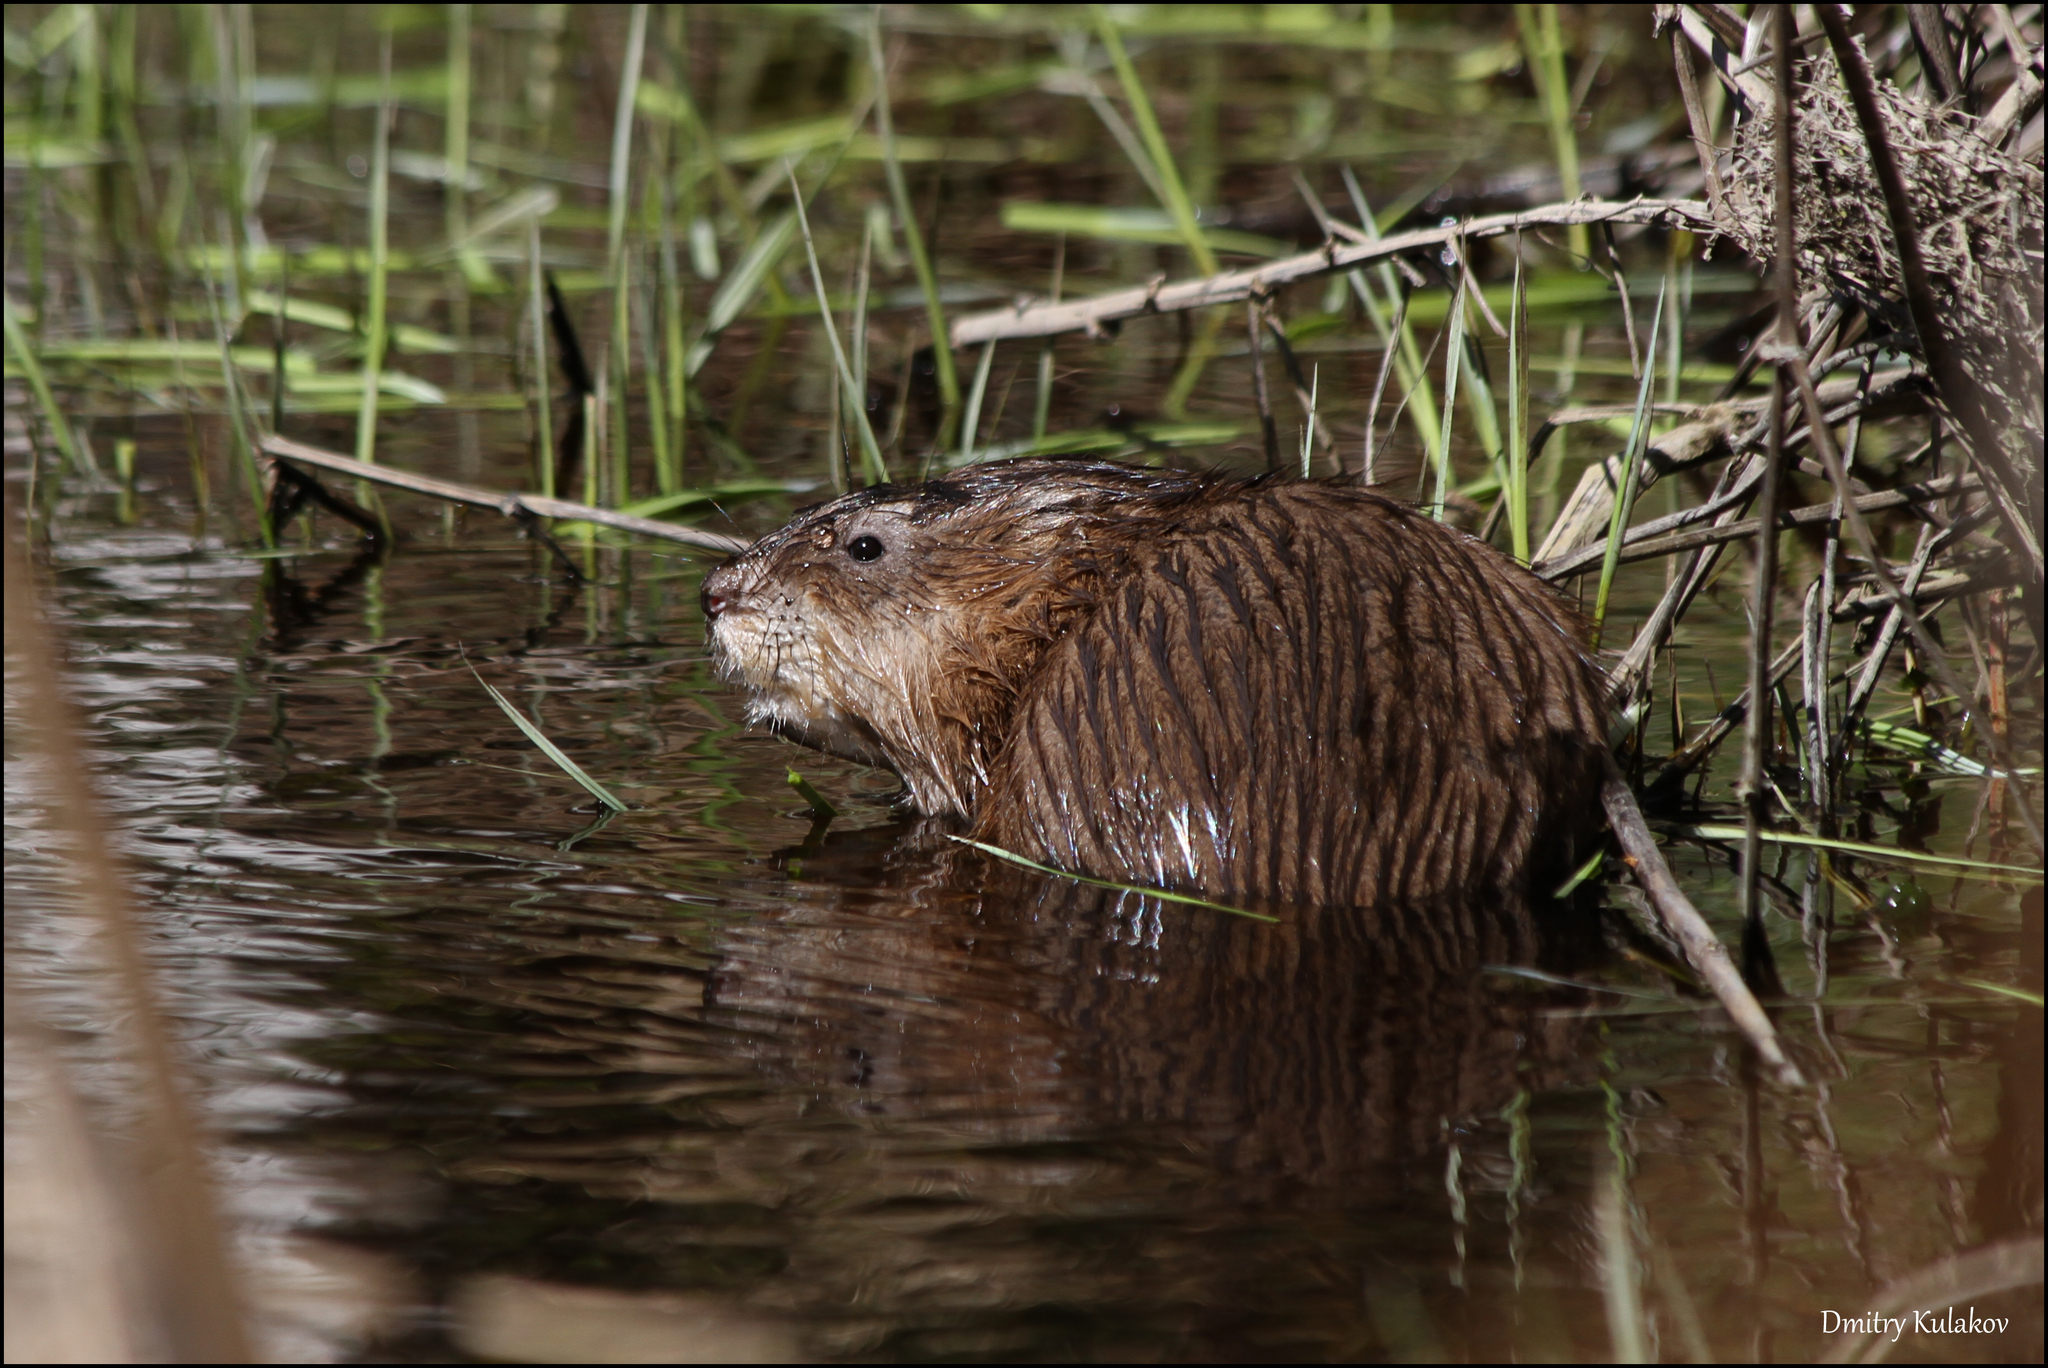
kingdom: Animalia
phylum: Chordata
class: Mammalia
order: Rodentia
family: Cricetidae
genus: Ondatra
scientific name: Ondatra zibethicus
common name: Muskrat
